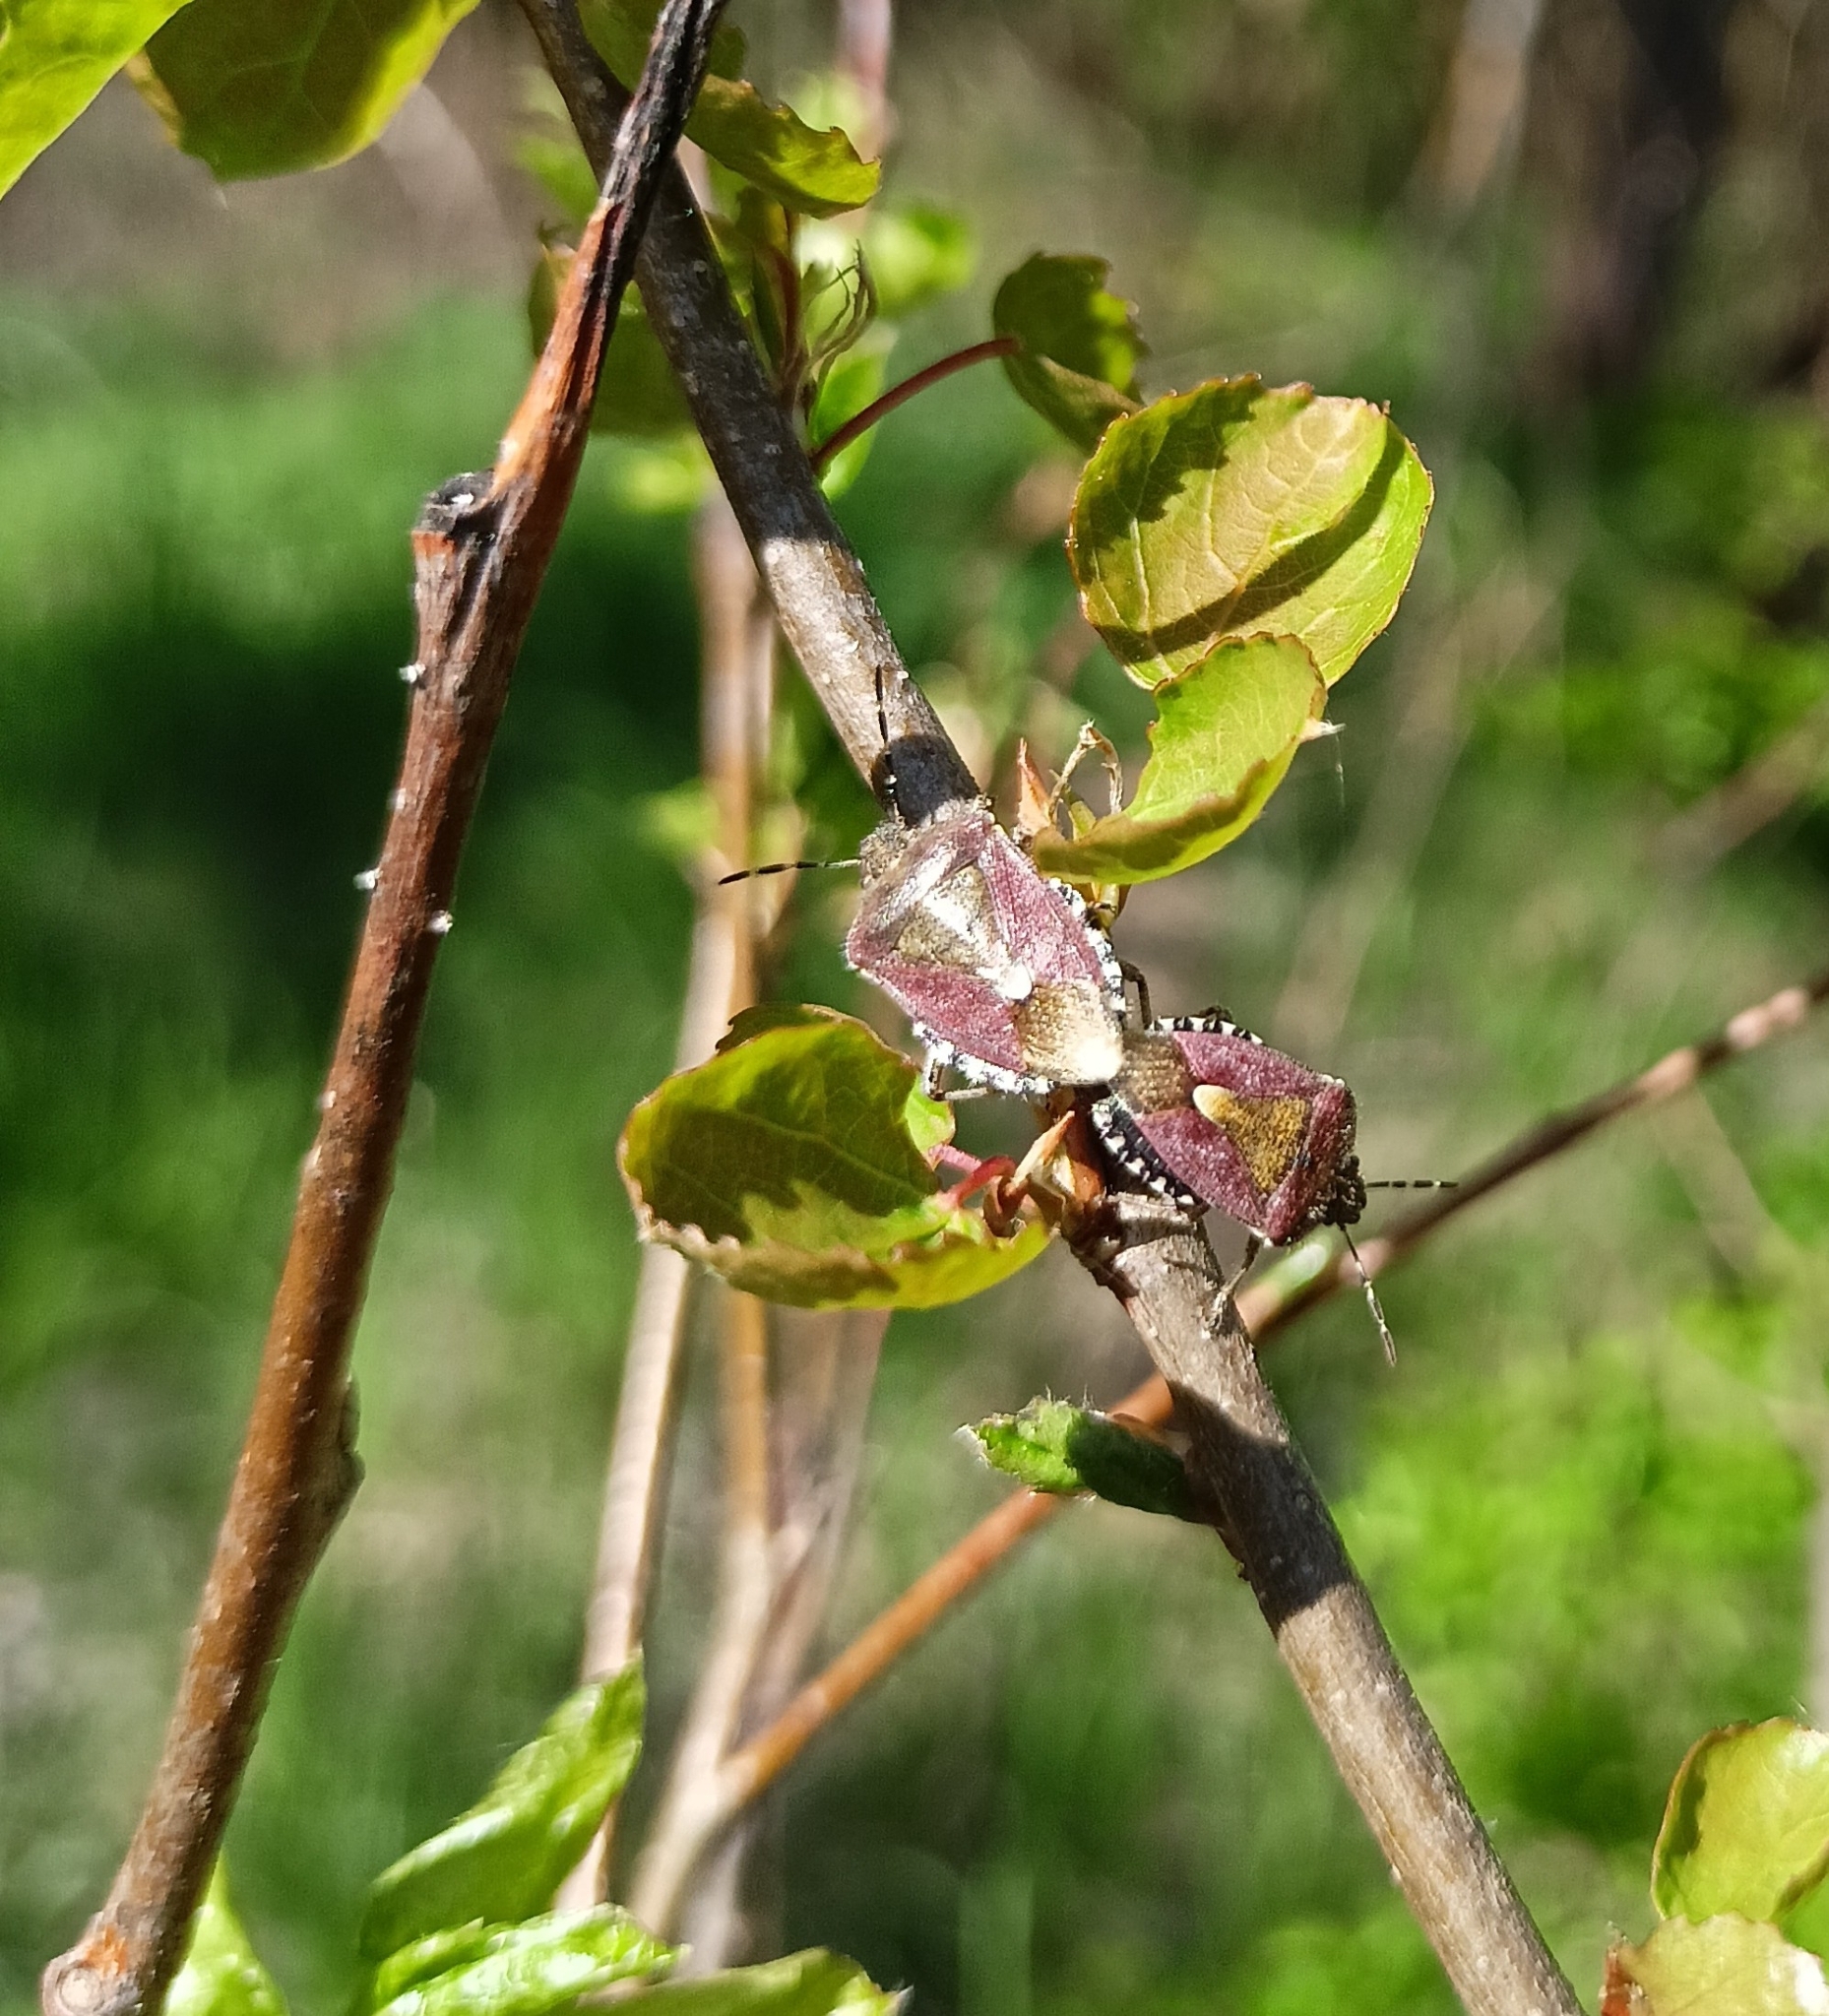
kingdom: Animalia
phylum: Arthropoda
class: Insecta
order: Hemiptera
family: Pentatomidae
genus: Dolycoris
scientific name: Dolycoris baccarum
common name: Sloe bug
